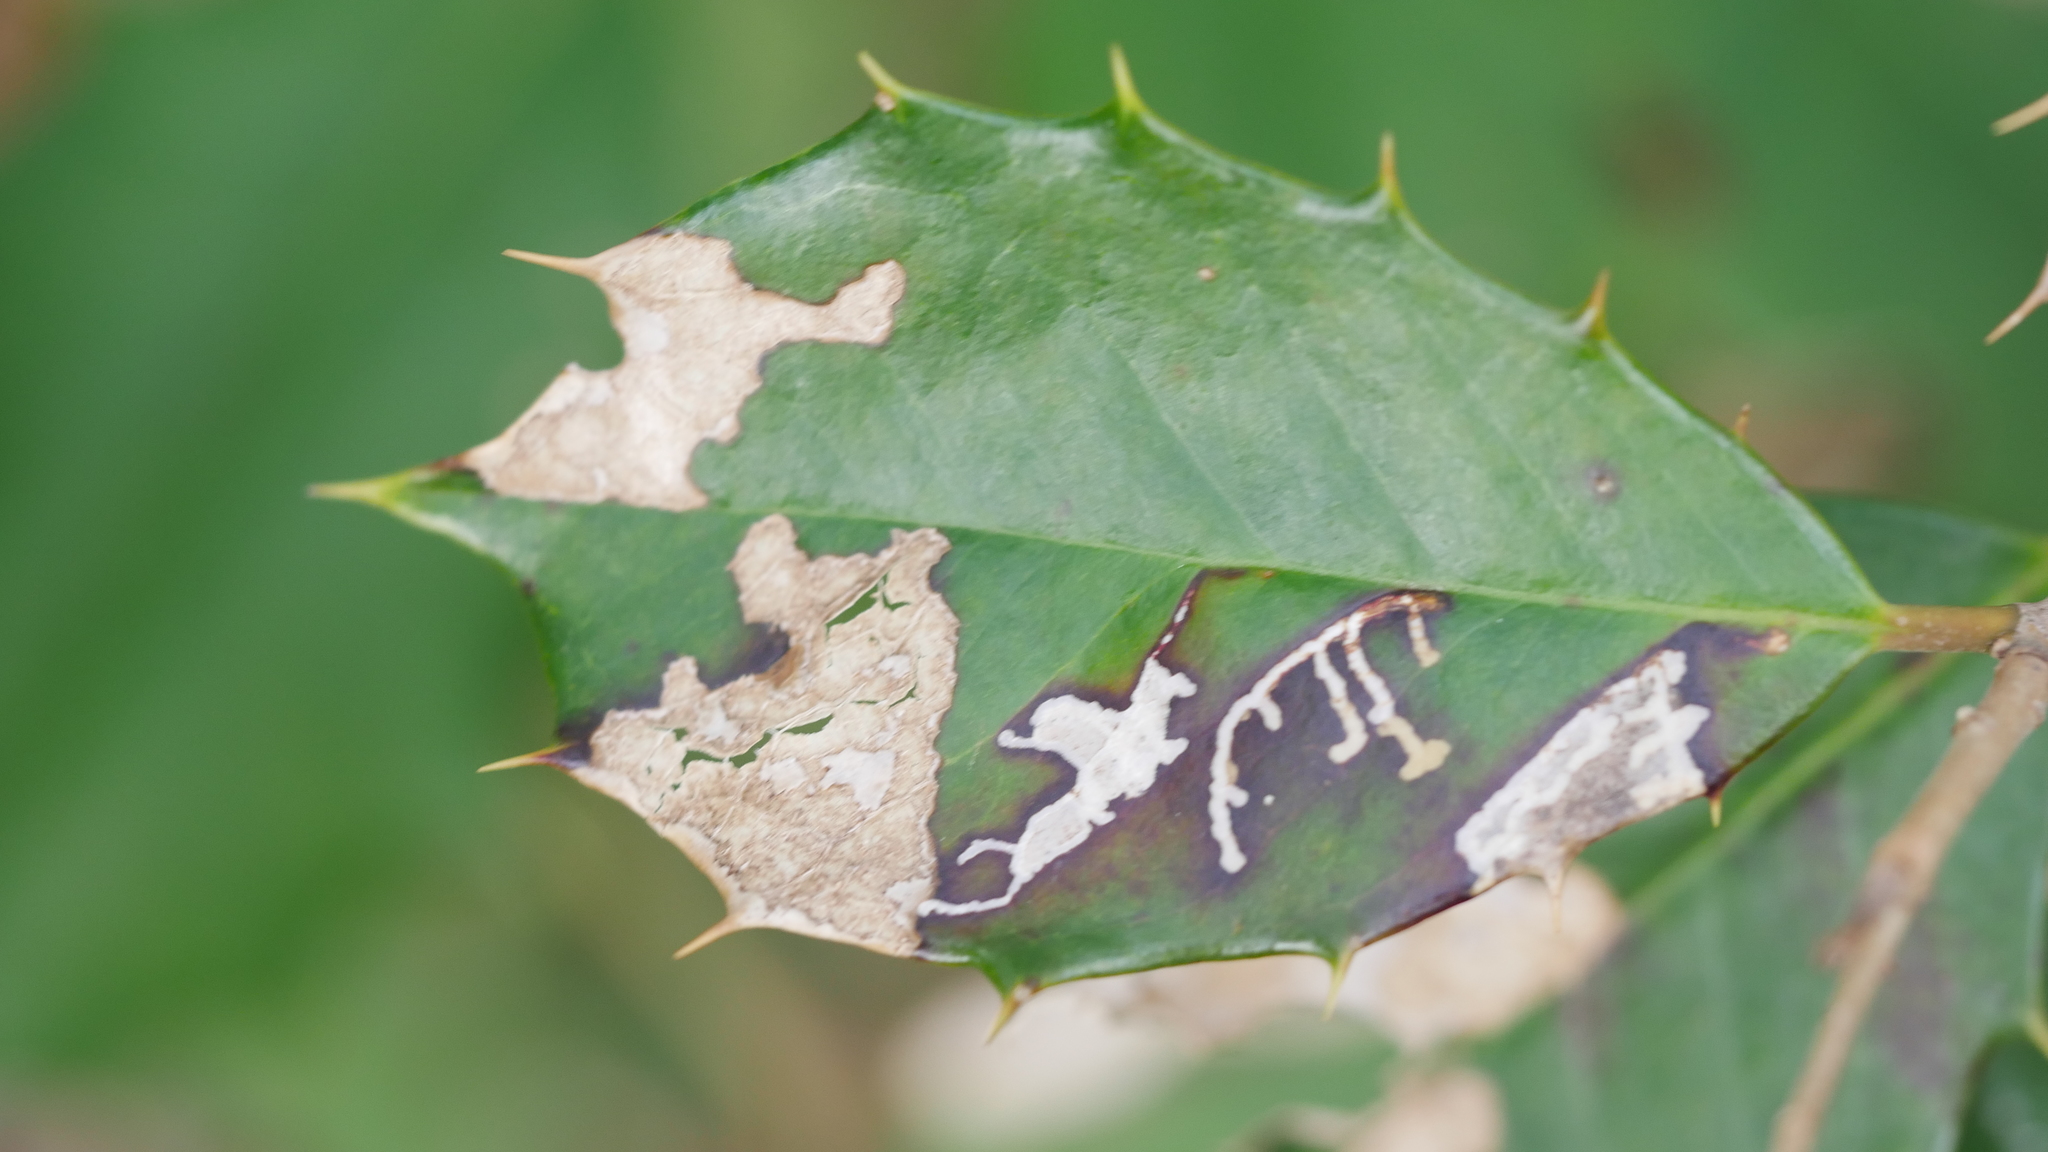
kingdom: Animalia
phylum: Arthropoda
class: Insecta
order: Lepidoptera
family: Tortricidae
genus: Rhopobota
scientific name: Rhopobota
